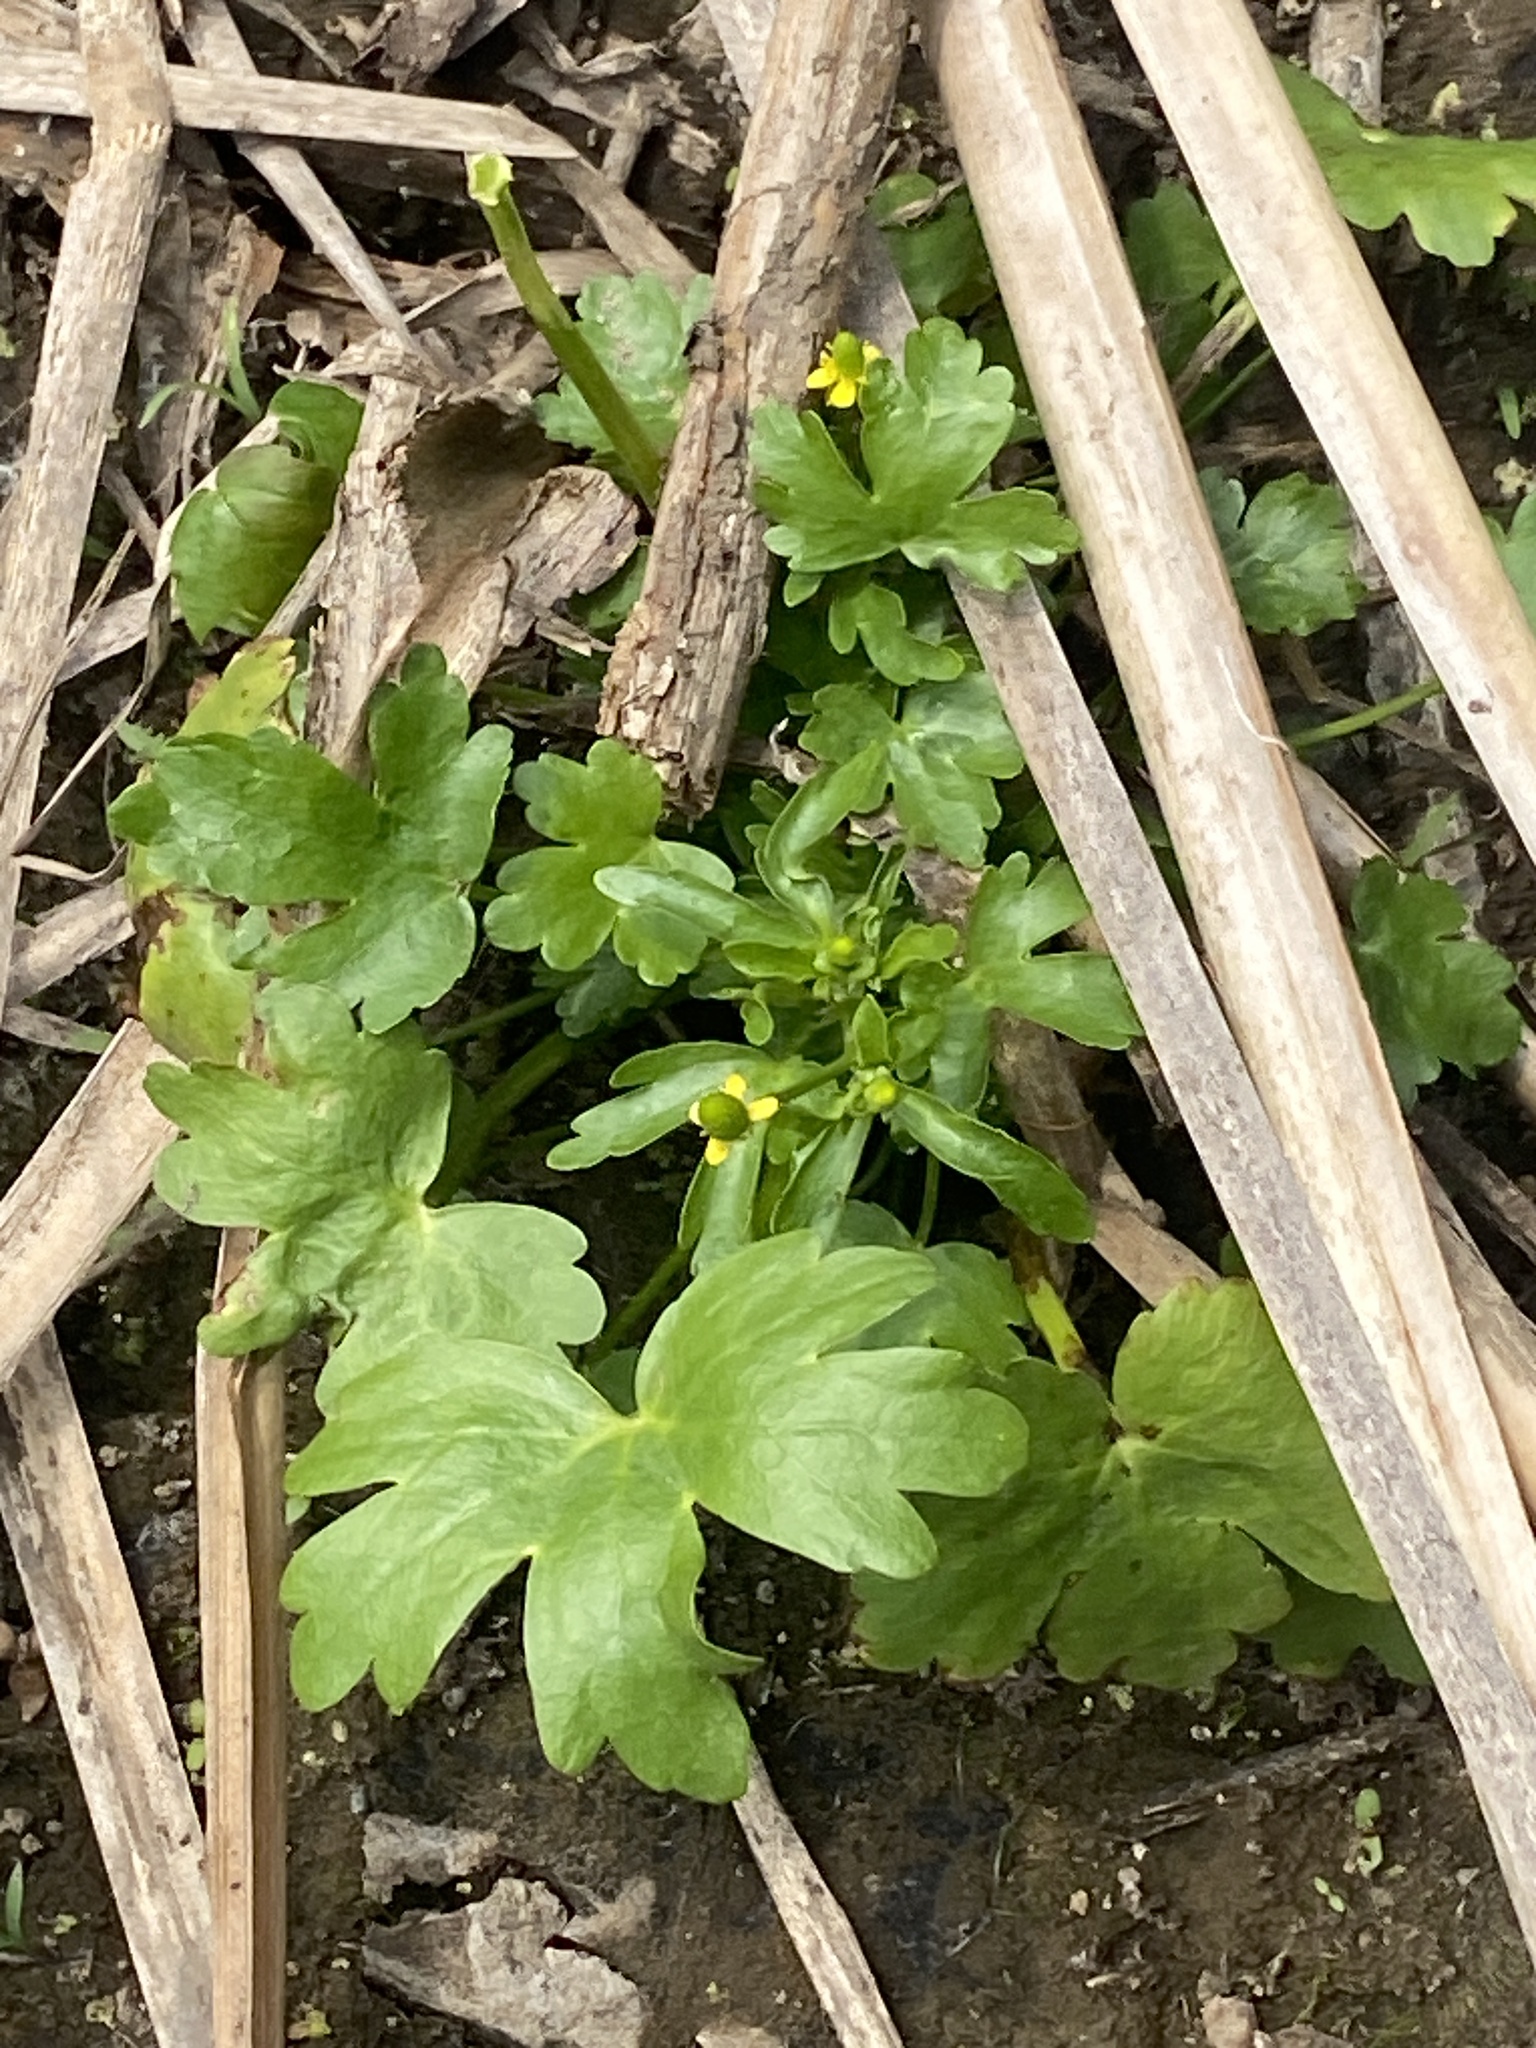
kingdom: Plantae
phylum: Tracheophyta
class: Magnoliopsida
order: Ranunculales
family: Ranunculaceae
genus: Ranunculus
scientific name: Ranunculus sceleratus
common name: Celery-leaved buttercup
